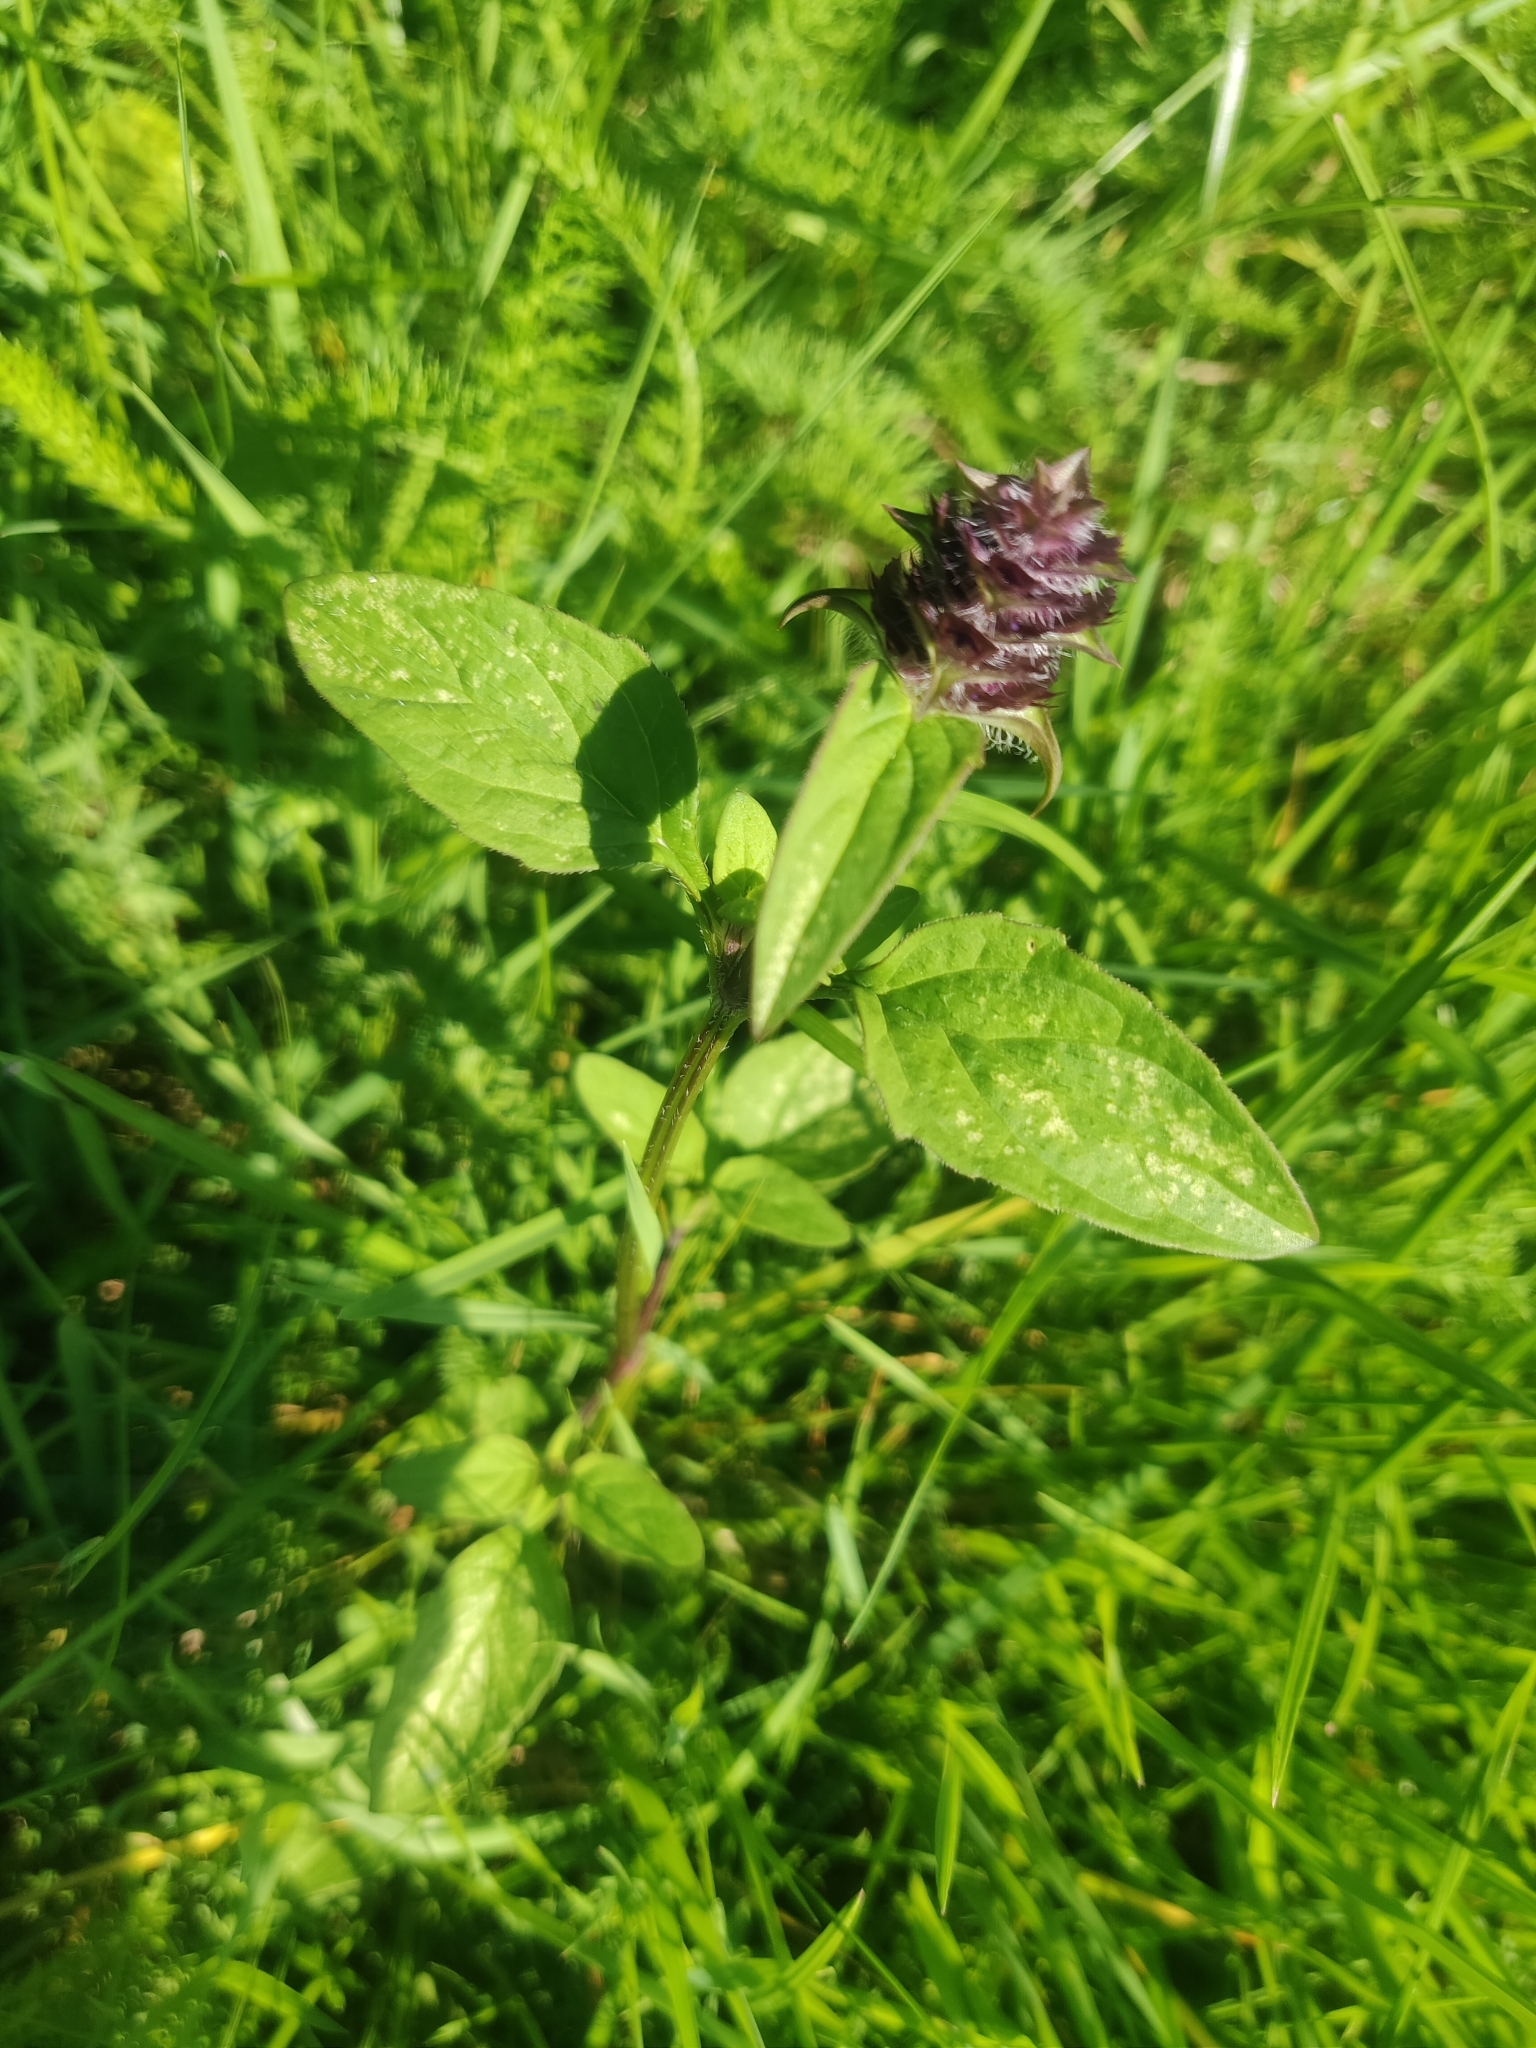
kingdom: Plantae
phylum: Tracheophyta
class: Magnoliopsida
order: Lamiales
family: Lamiaceae
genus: Prunella
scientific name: Prunella vulgaris
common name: Heal-all
